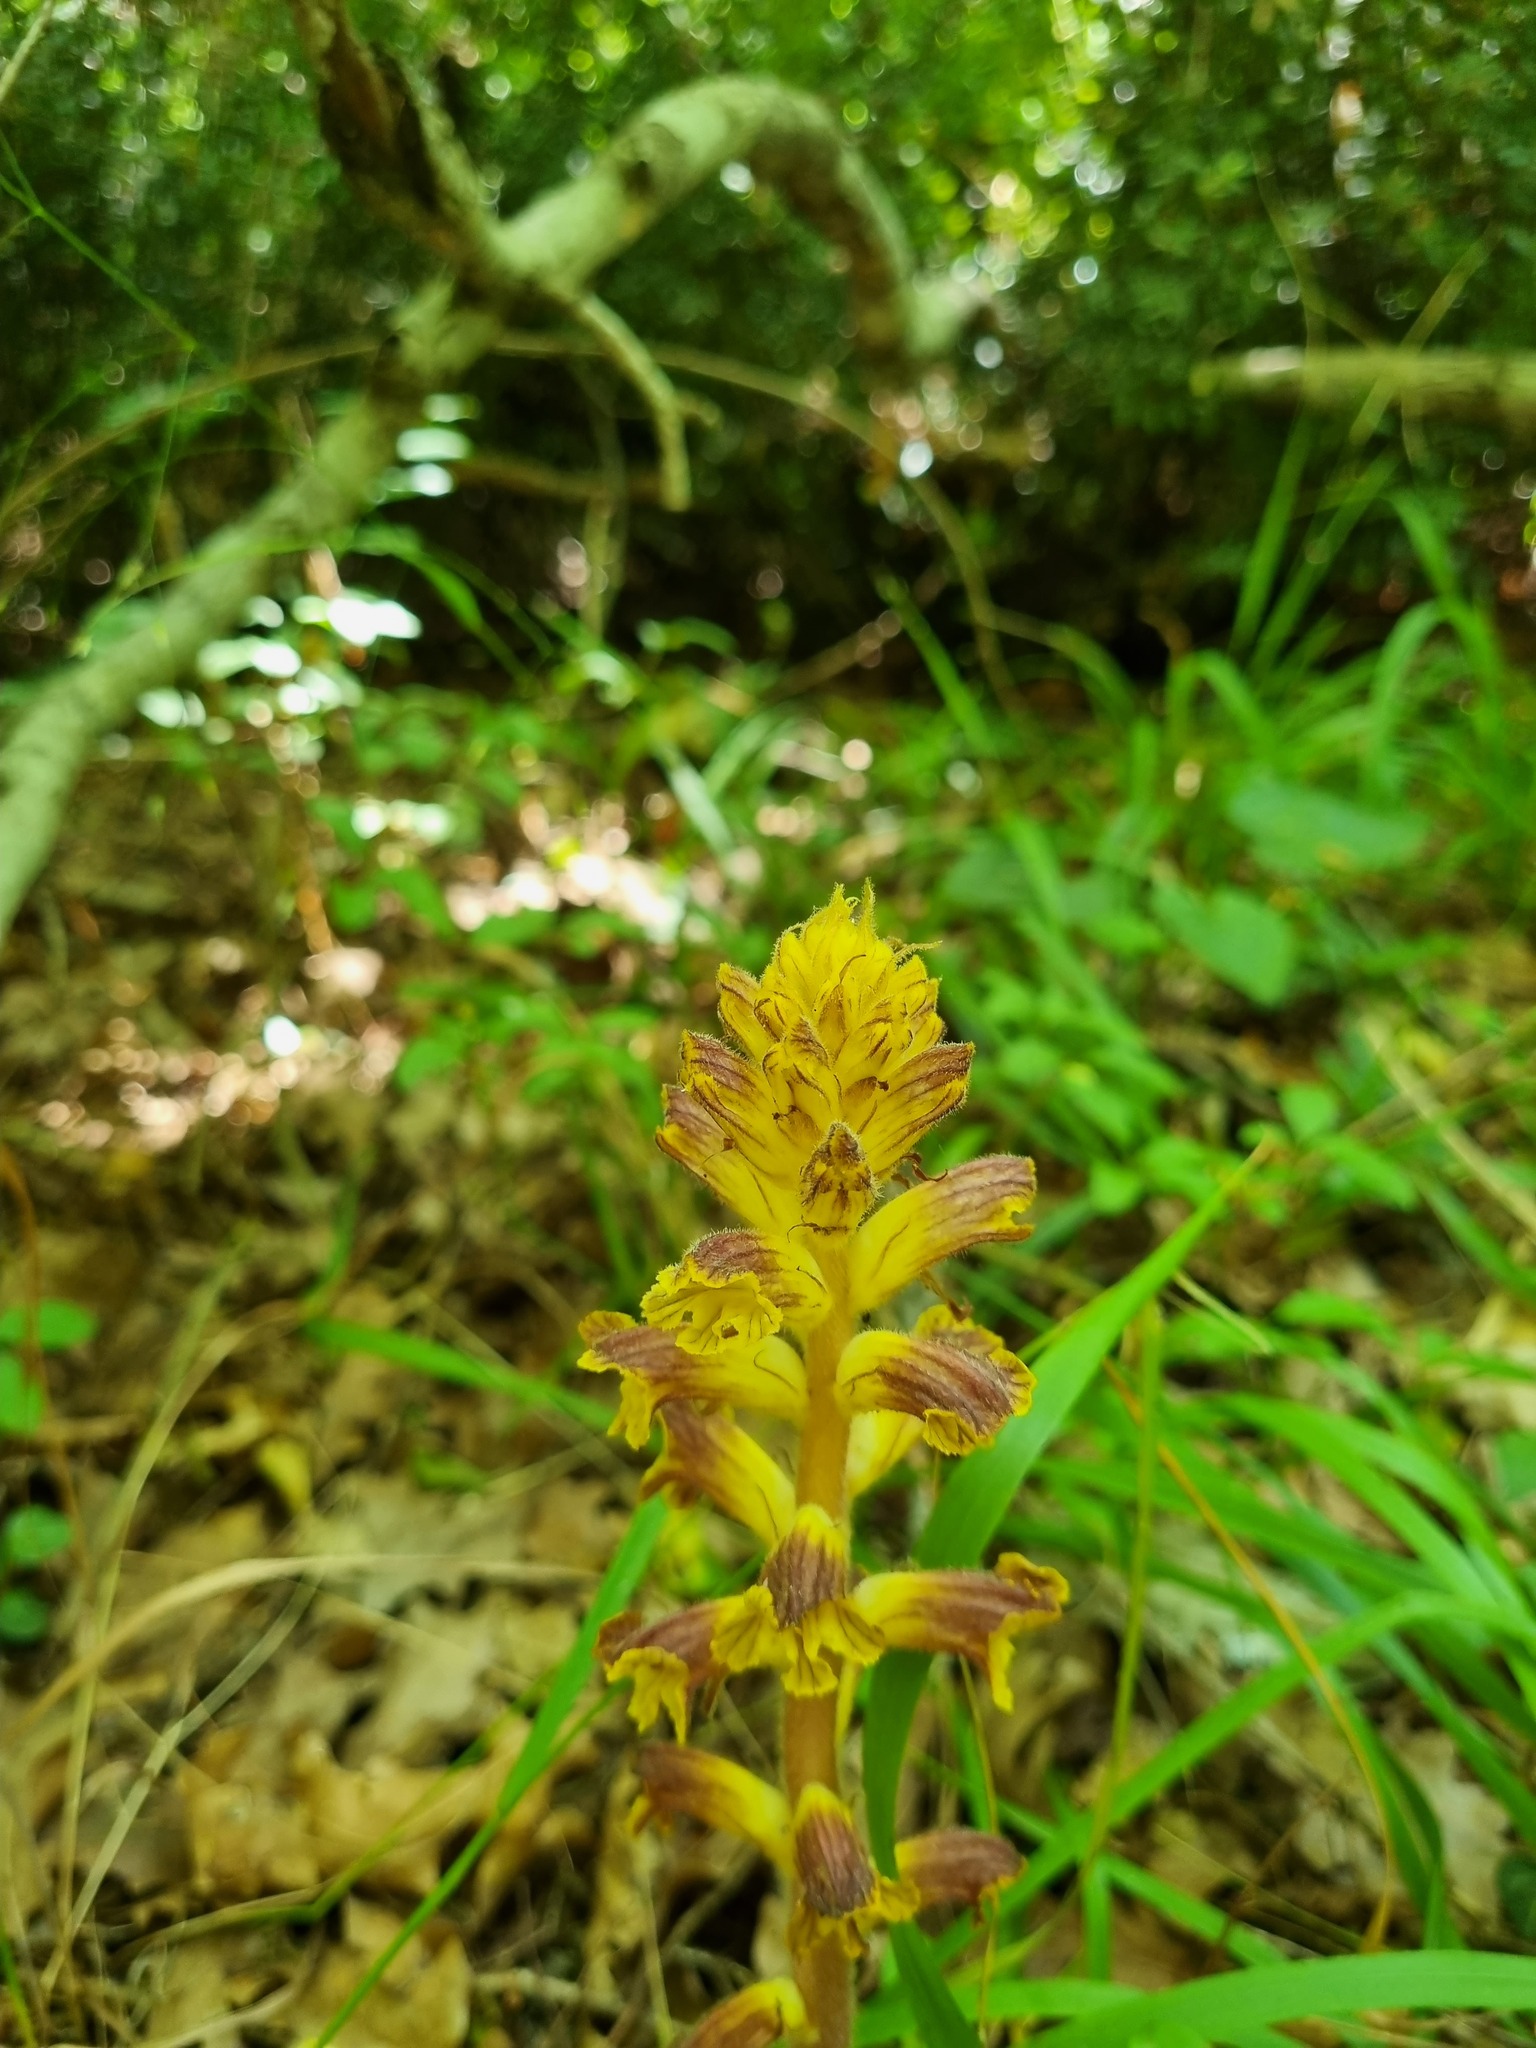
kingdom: Plantae
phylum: Tracheophyta
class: Magnoliopsida
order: Lamiales
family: Orobanchaceae
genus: Orobanche
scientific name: Orobanche laxissima
